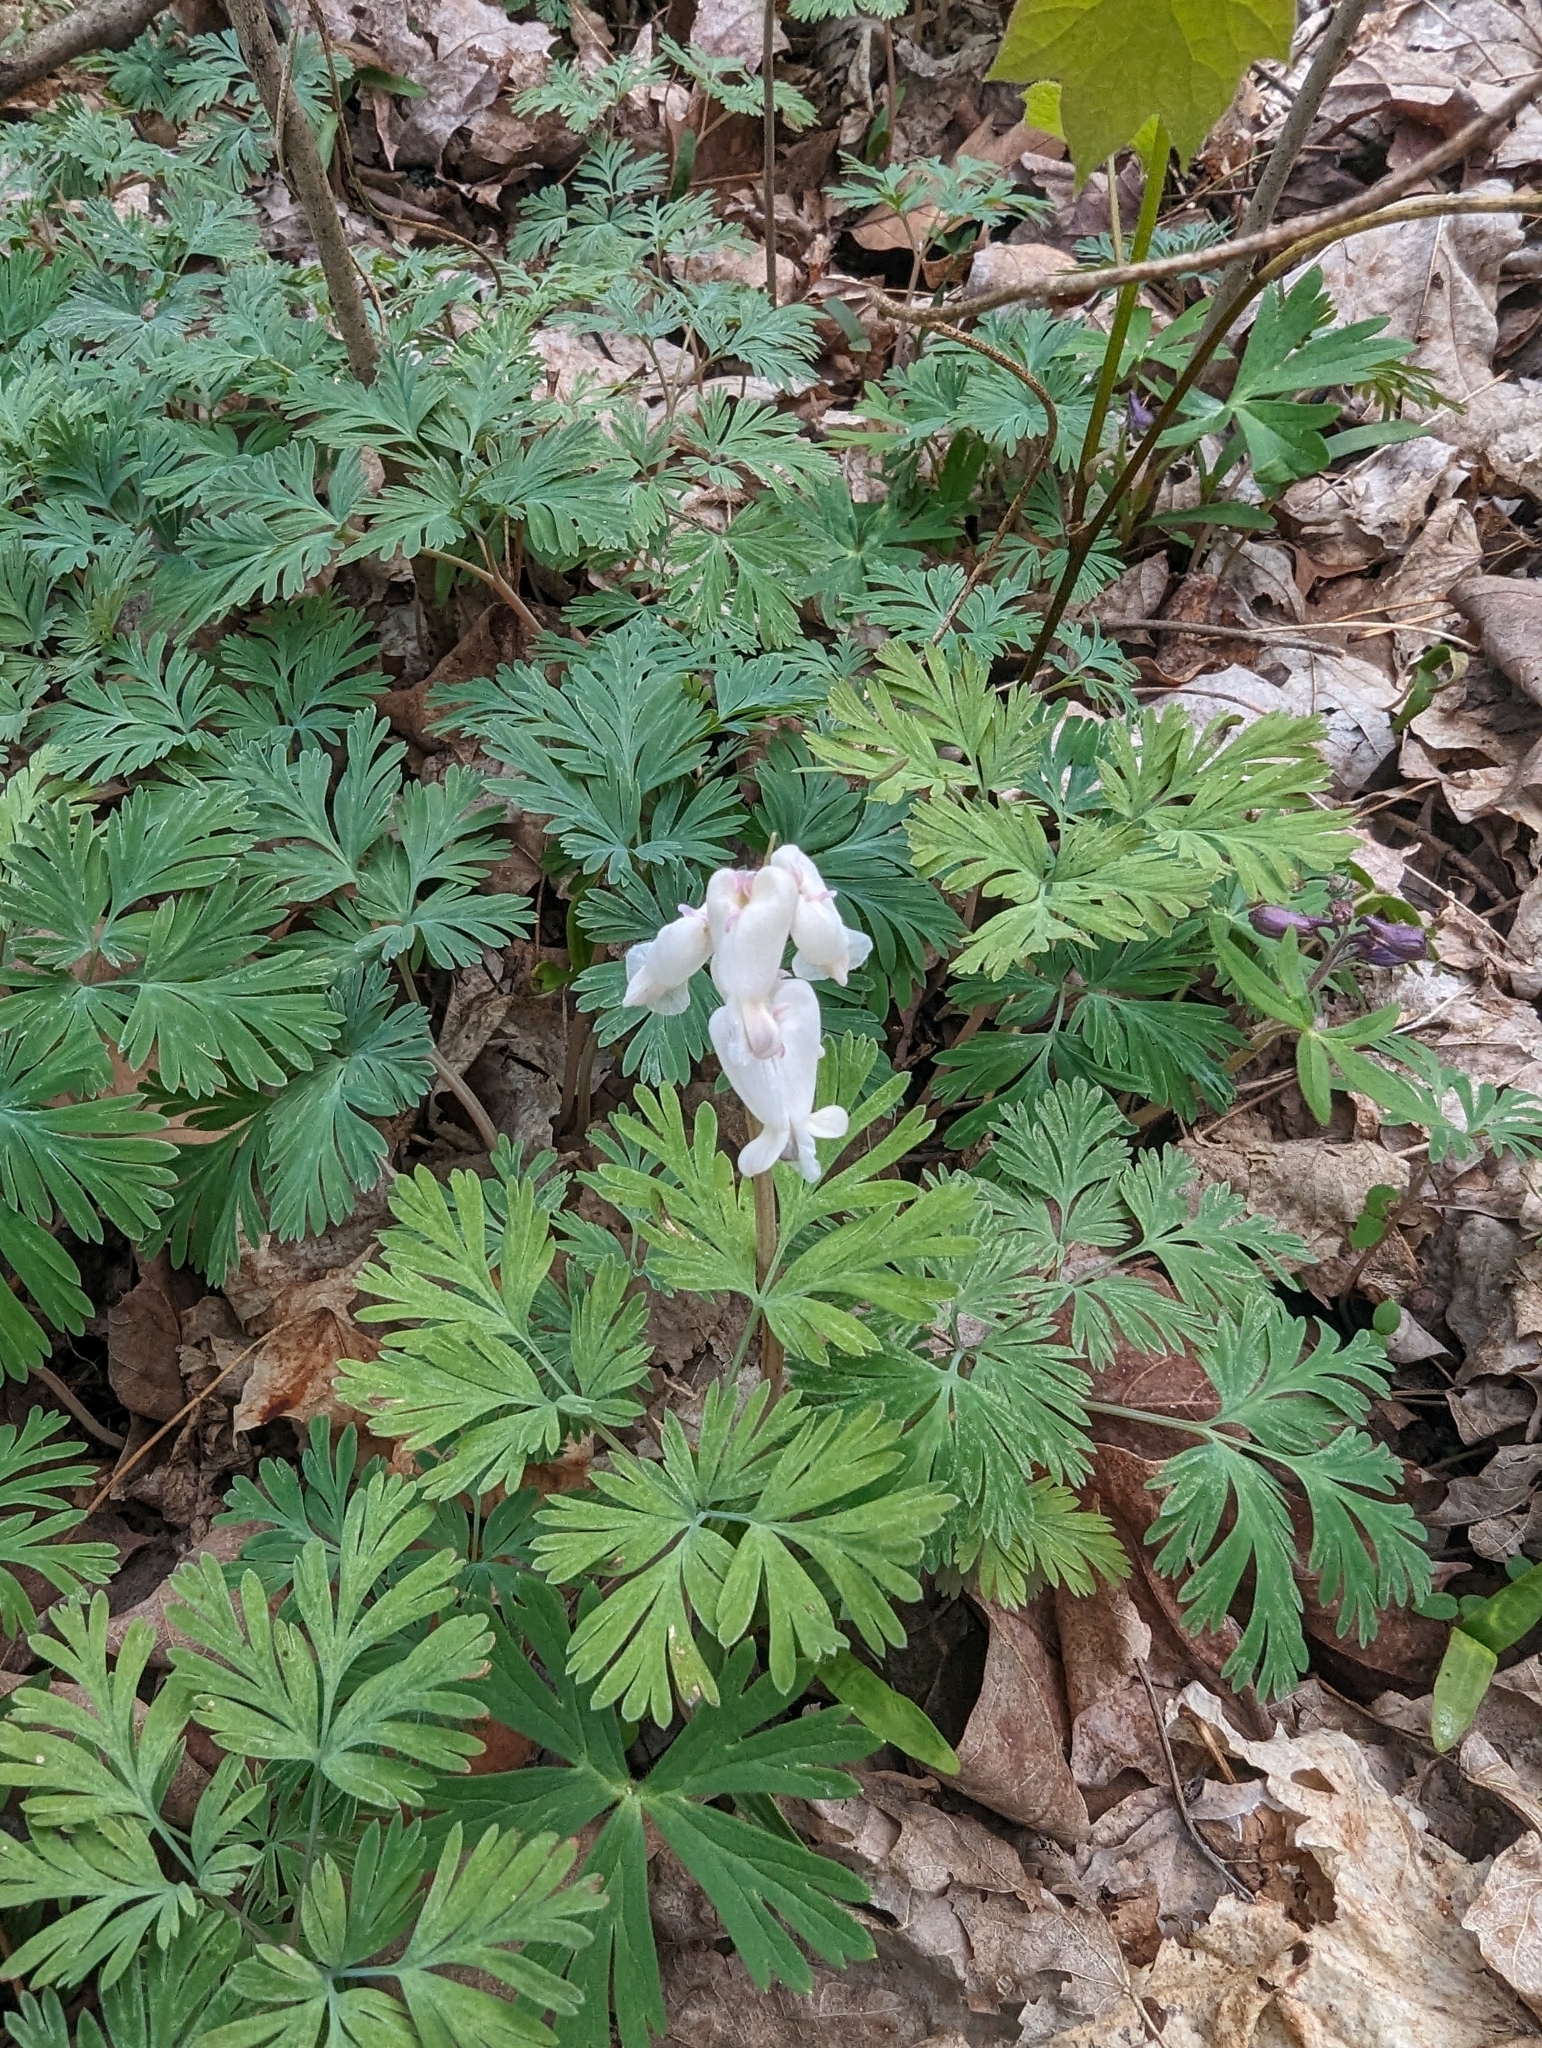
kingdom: Plantae
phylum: Tracheophyta
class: Magnoliopsida
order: Ranunculales
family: Papaveraceae
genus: Dicentra
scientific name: Dicentra canadensis
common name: Squirrel-corn
